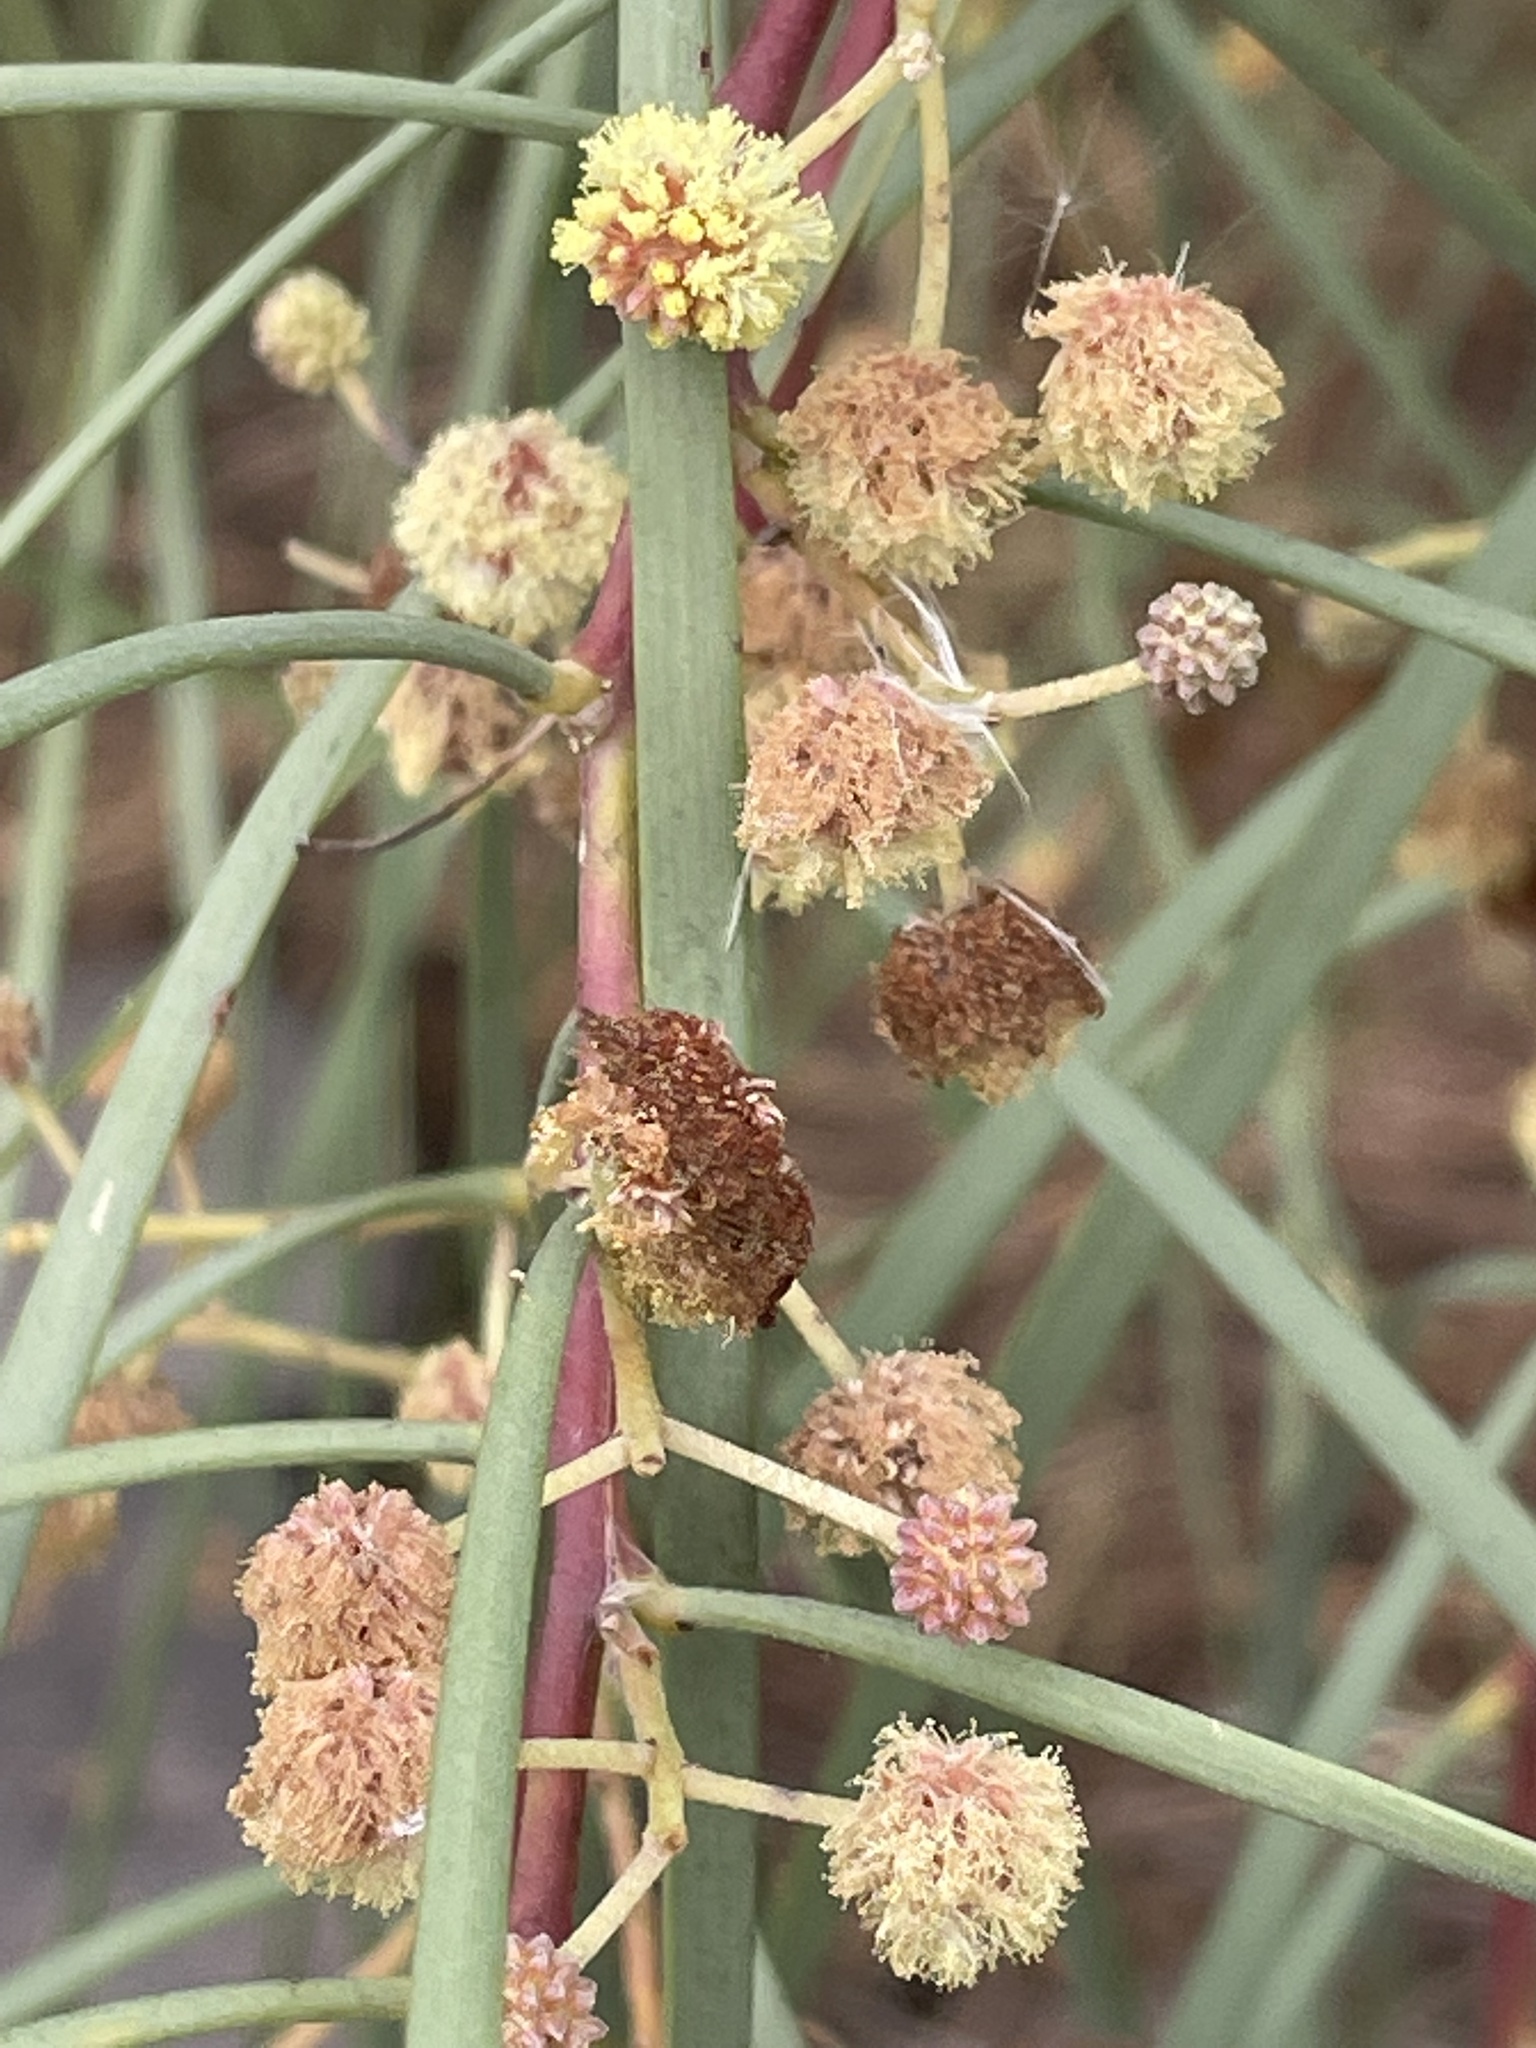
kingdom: Plantae
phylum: Tracheophyta
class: Magnoliopsida
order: Fabales
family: Fabaceae
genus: Acacia
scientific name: Acacia stenophylla
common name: River cooba
